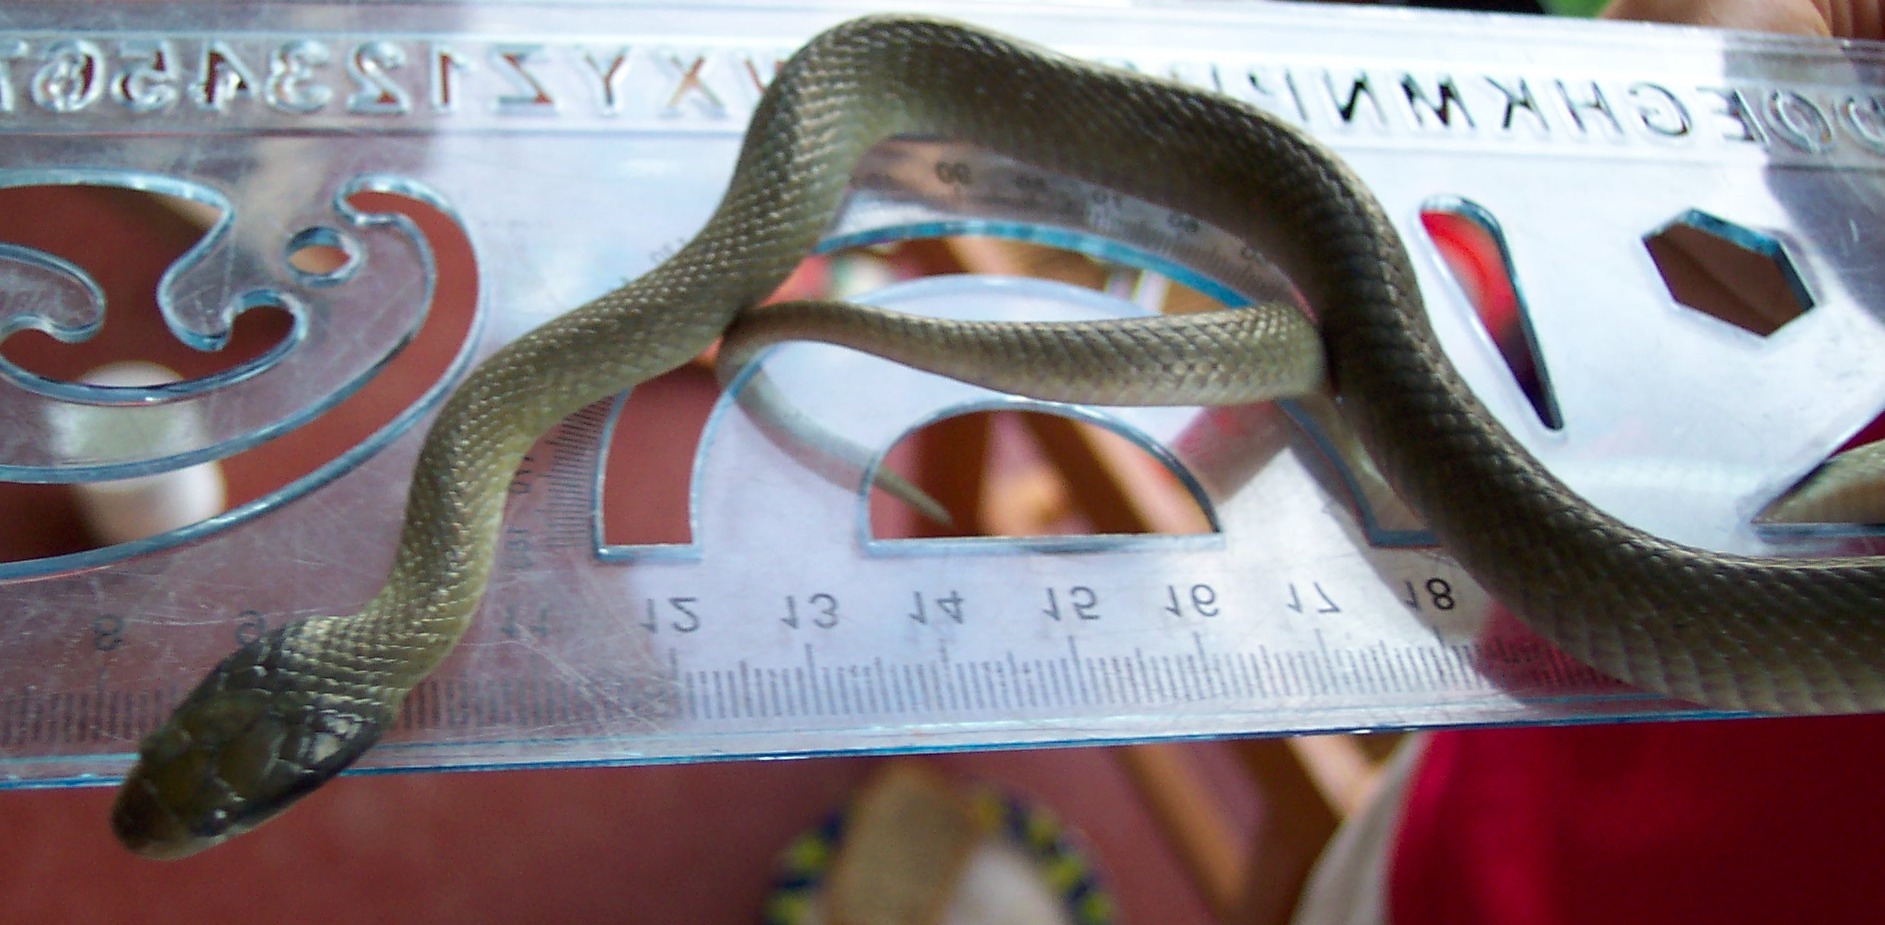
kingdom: Animalia
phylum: Chordata
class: Squamata
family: Colubridae
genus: Crotaphopeltis
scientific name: Crotaphopeltis hotamboeia
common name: Red-lipped snake
